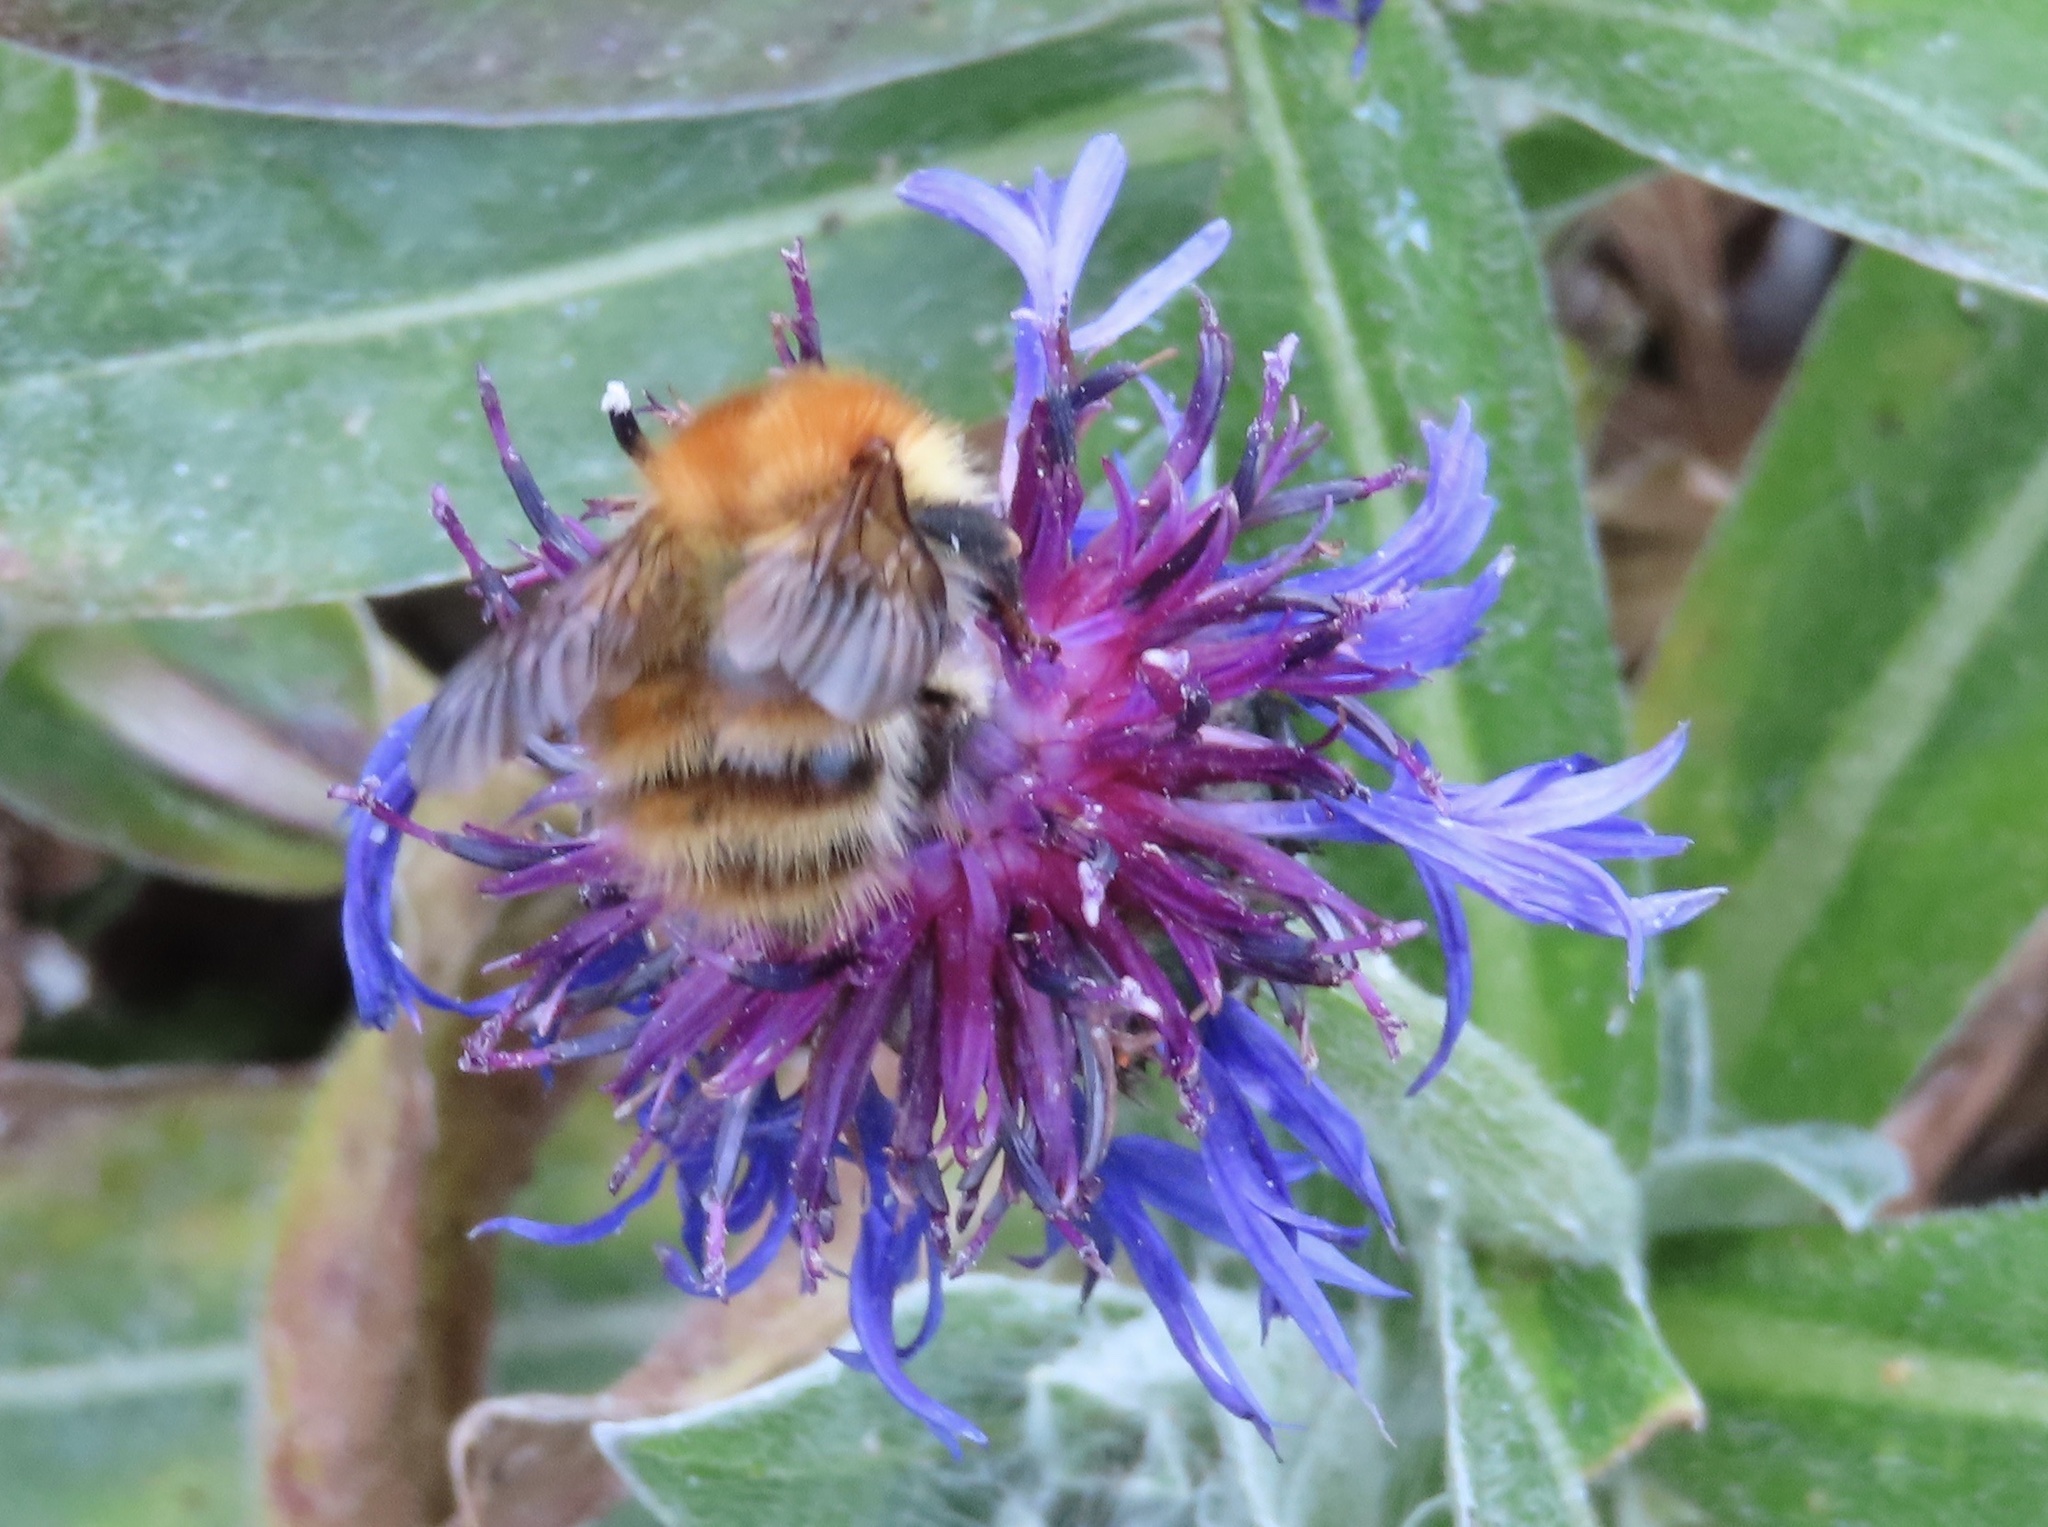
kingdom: Animalia
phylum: Arthropoda
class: Insecta
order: Hymenoptera
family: Apidae
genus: Bombus
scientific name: Bombus pascuorum
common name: Common carder bee
